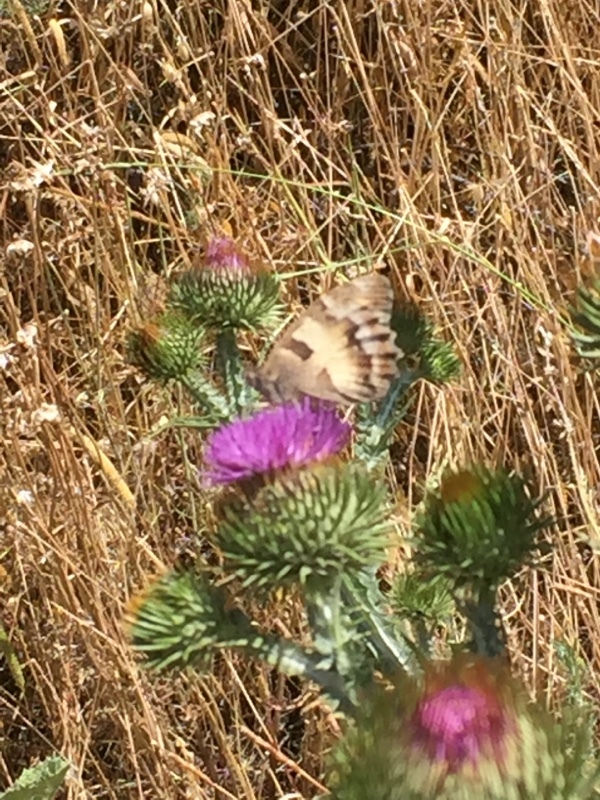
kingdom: Animalia
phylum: Arthropoda
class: Insecta
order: Lepidoptera
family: Nymphalidae
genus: Satyrus
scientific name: Satyrus briseis
